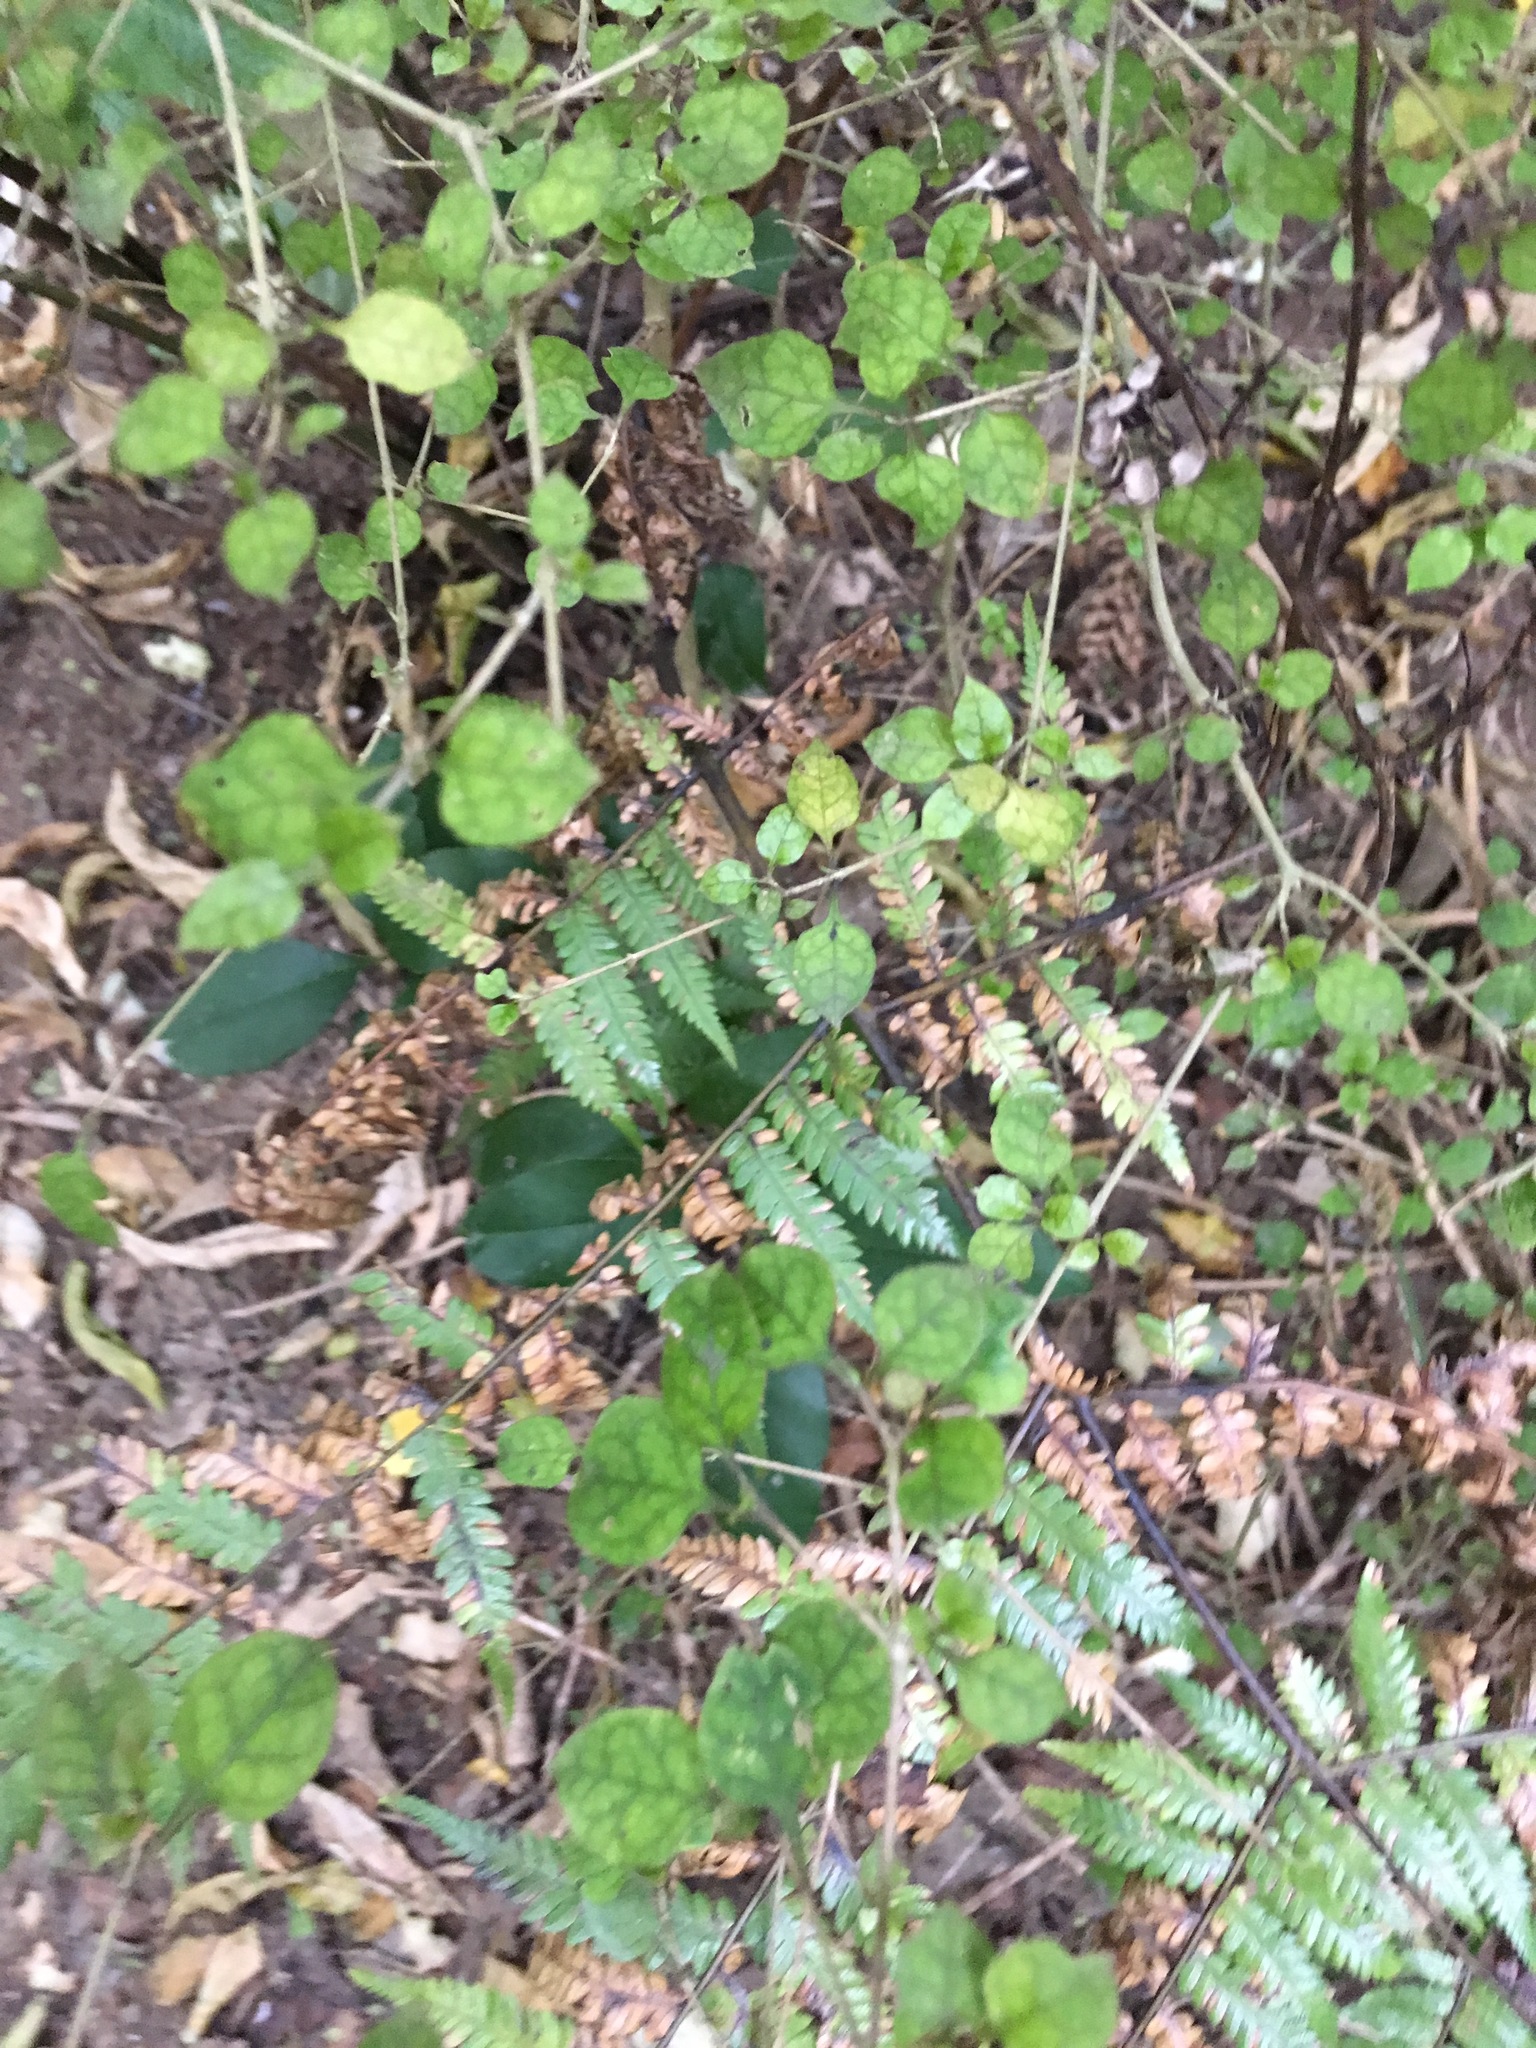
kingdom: Plantae
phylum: Tracheophyta
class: Magnoliopsida
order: Gentianales
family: Rubiaceae
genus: Coprosma
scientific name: Coprosma areolata
